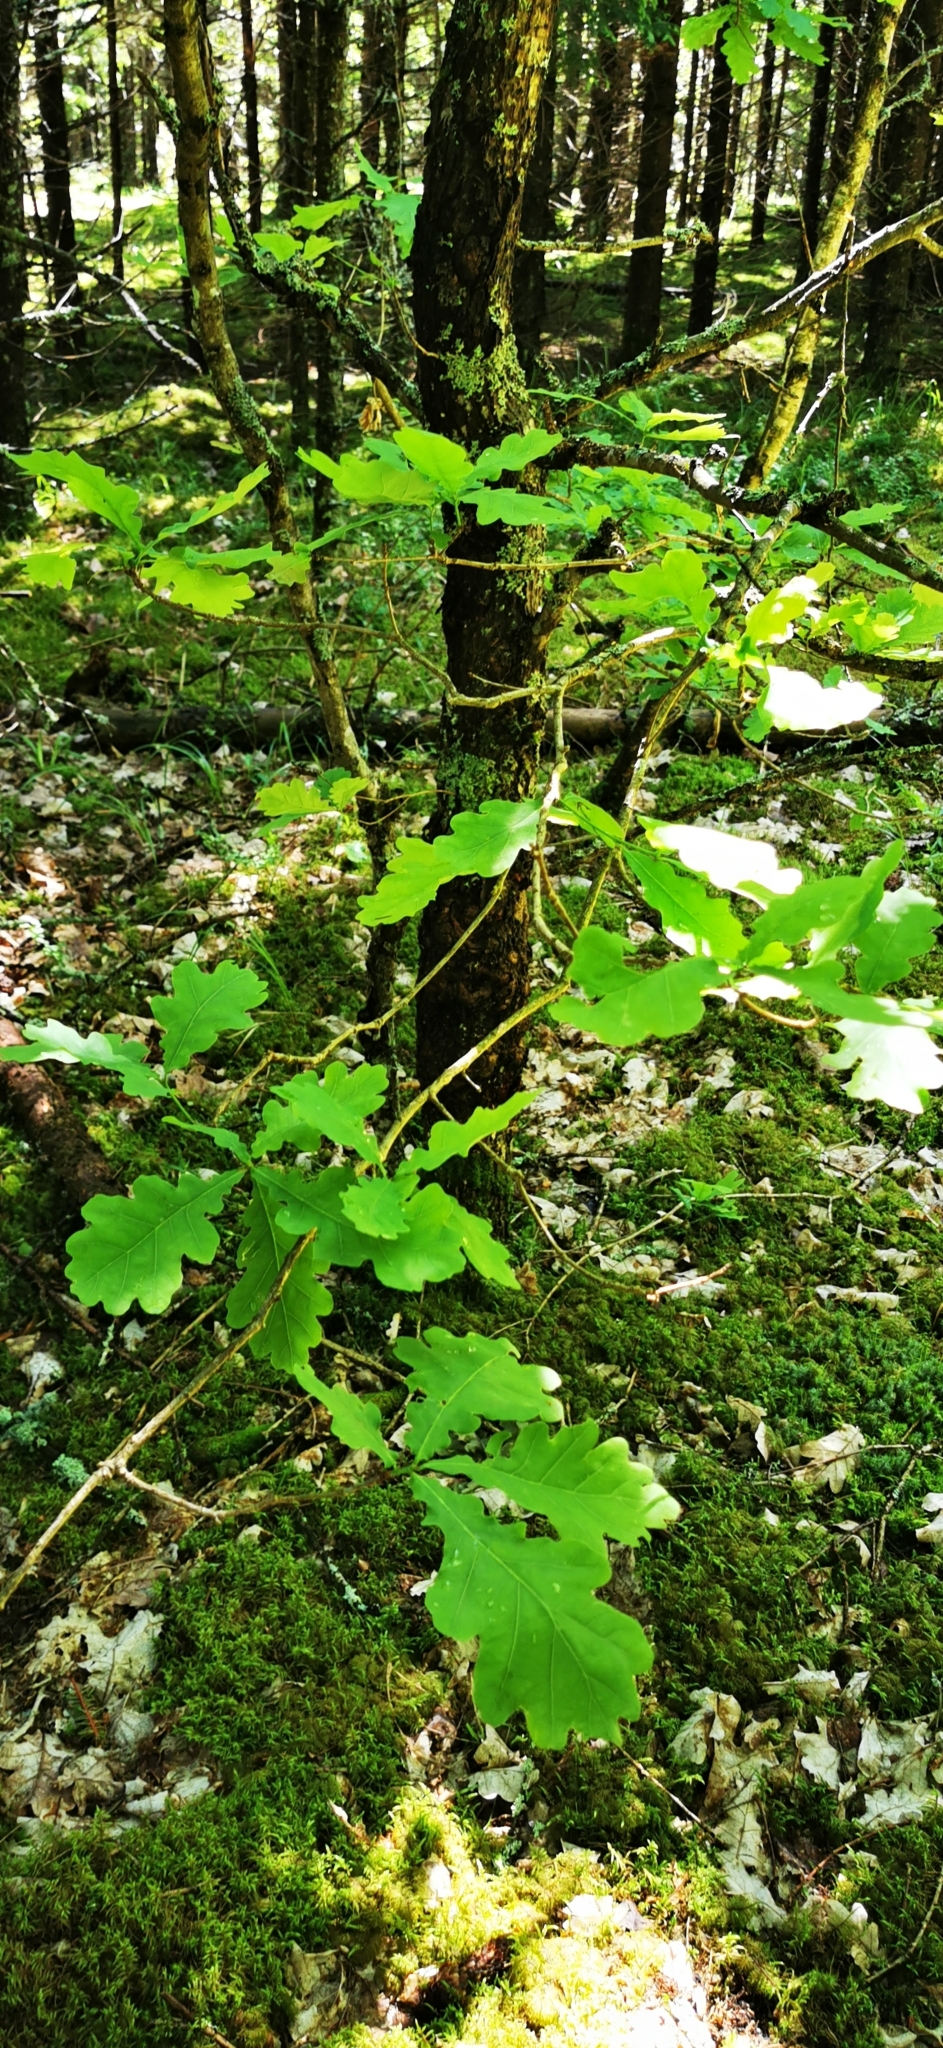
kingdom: Plantae
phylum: Tracheophyta
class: Magnoliopsida
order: Fagales
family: Fagaceae
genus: Quercus
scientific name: Quercus robur
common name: Pedunculate oak
